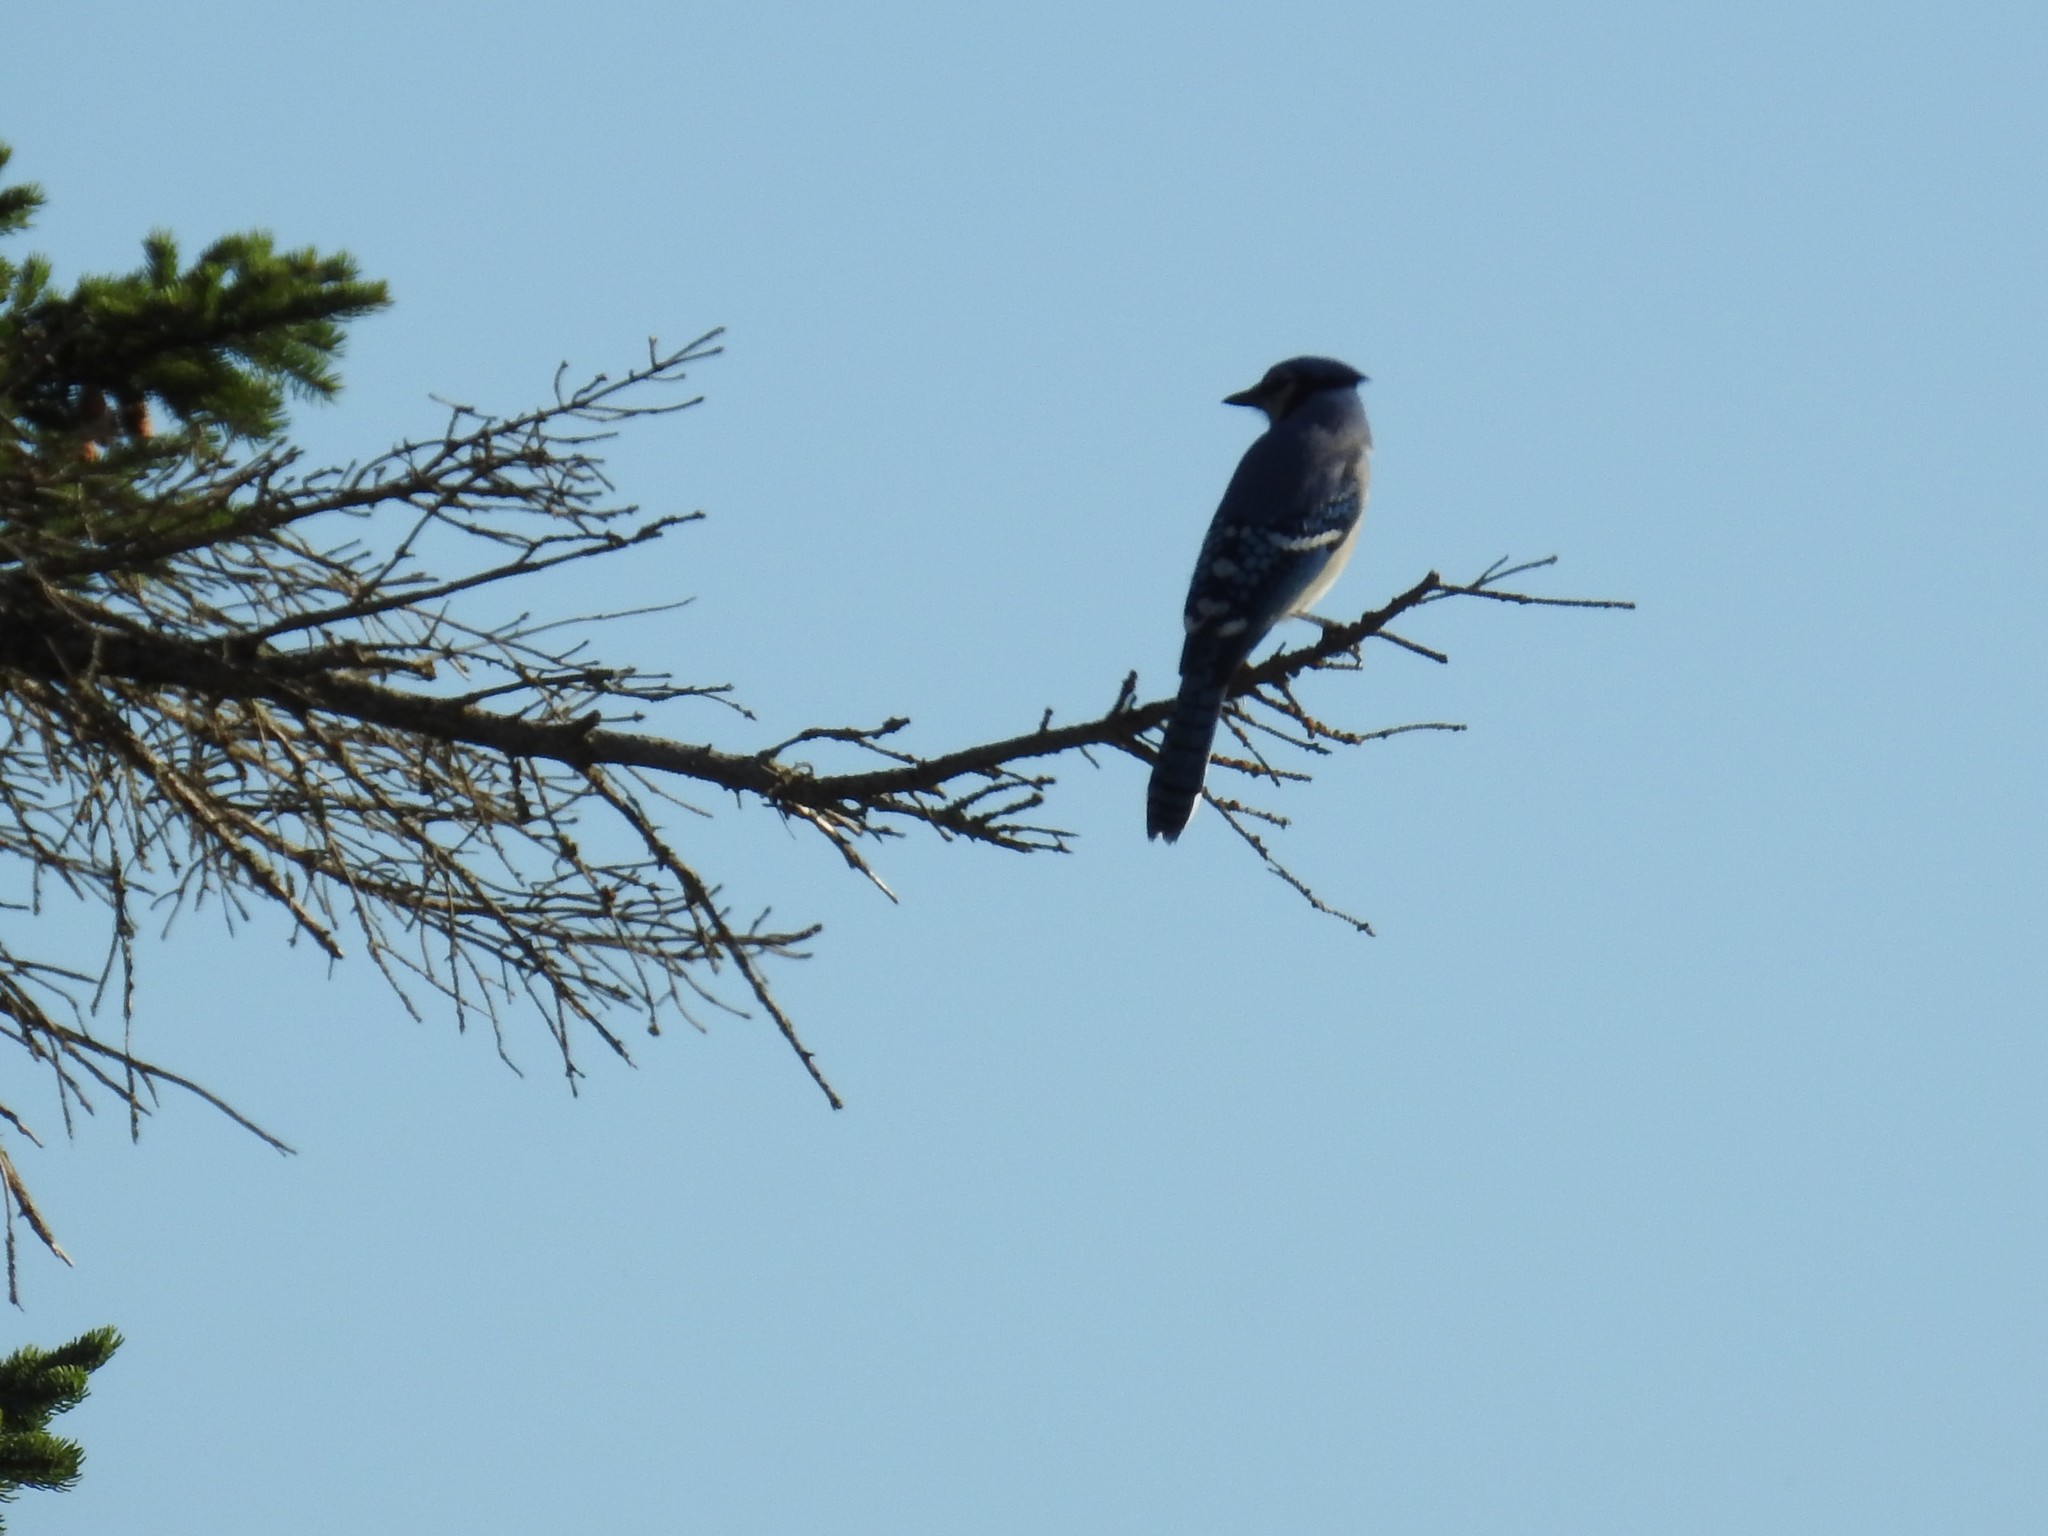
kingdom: Animalia
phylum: Chordata
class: Aves
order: Passeriformes
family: Corvidae
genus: Cyanocitta
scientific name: Cyanocitta cristata
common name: Blue jay
